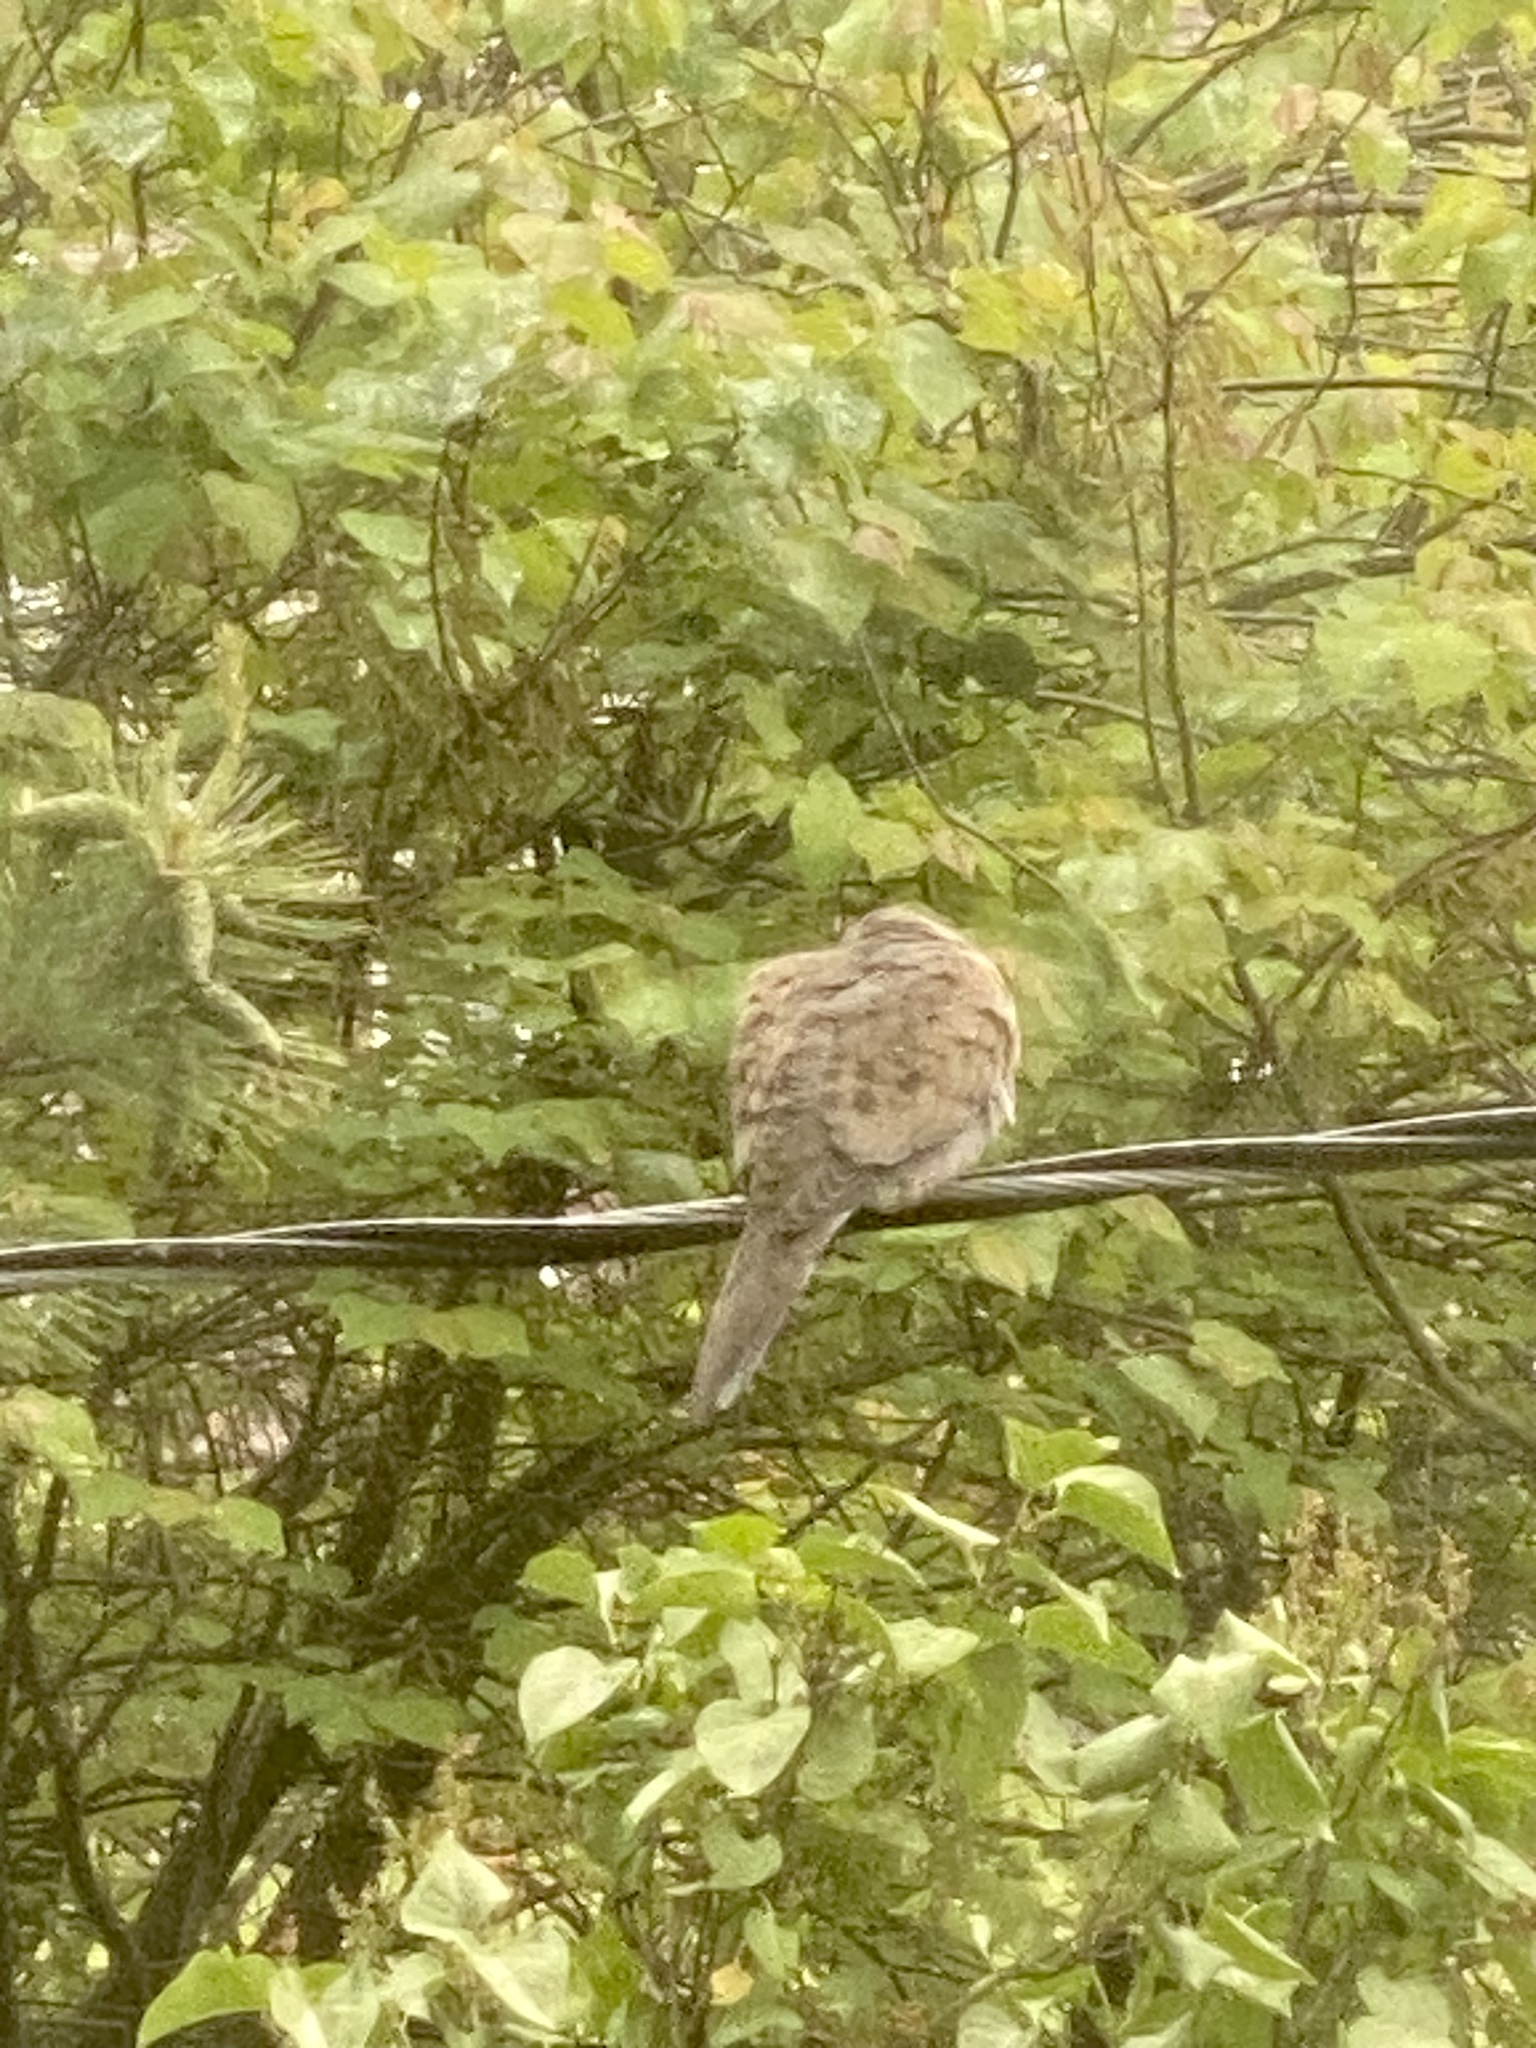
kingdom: Animalia
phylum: Chordata
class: Aves
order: Columbiformes
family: Columbidae
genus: Zenaida
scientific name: Zenaida macroura
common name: Mourning dove
